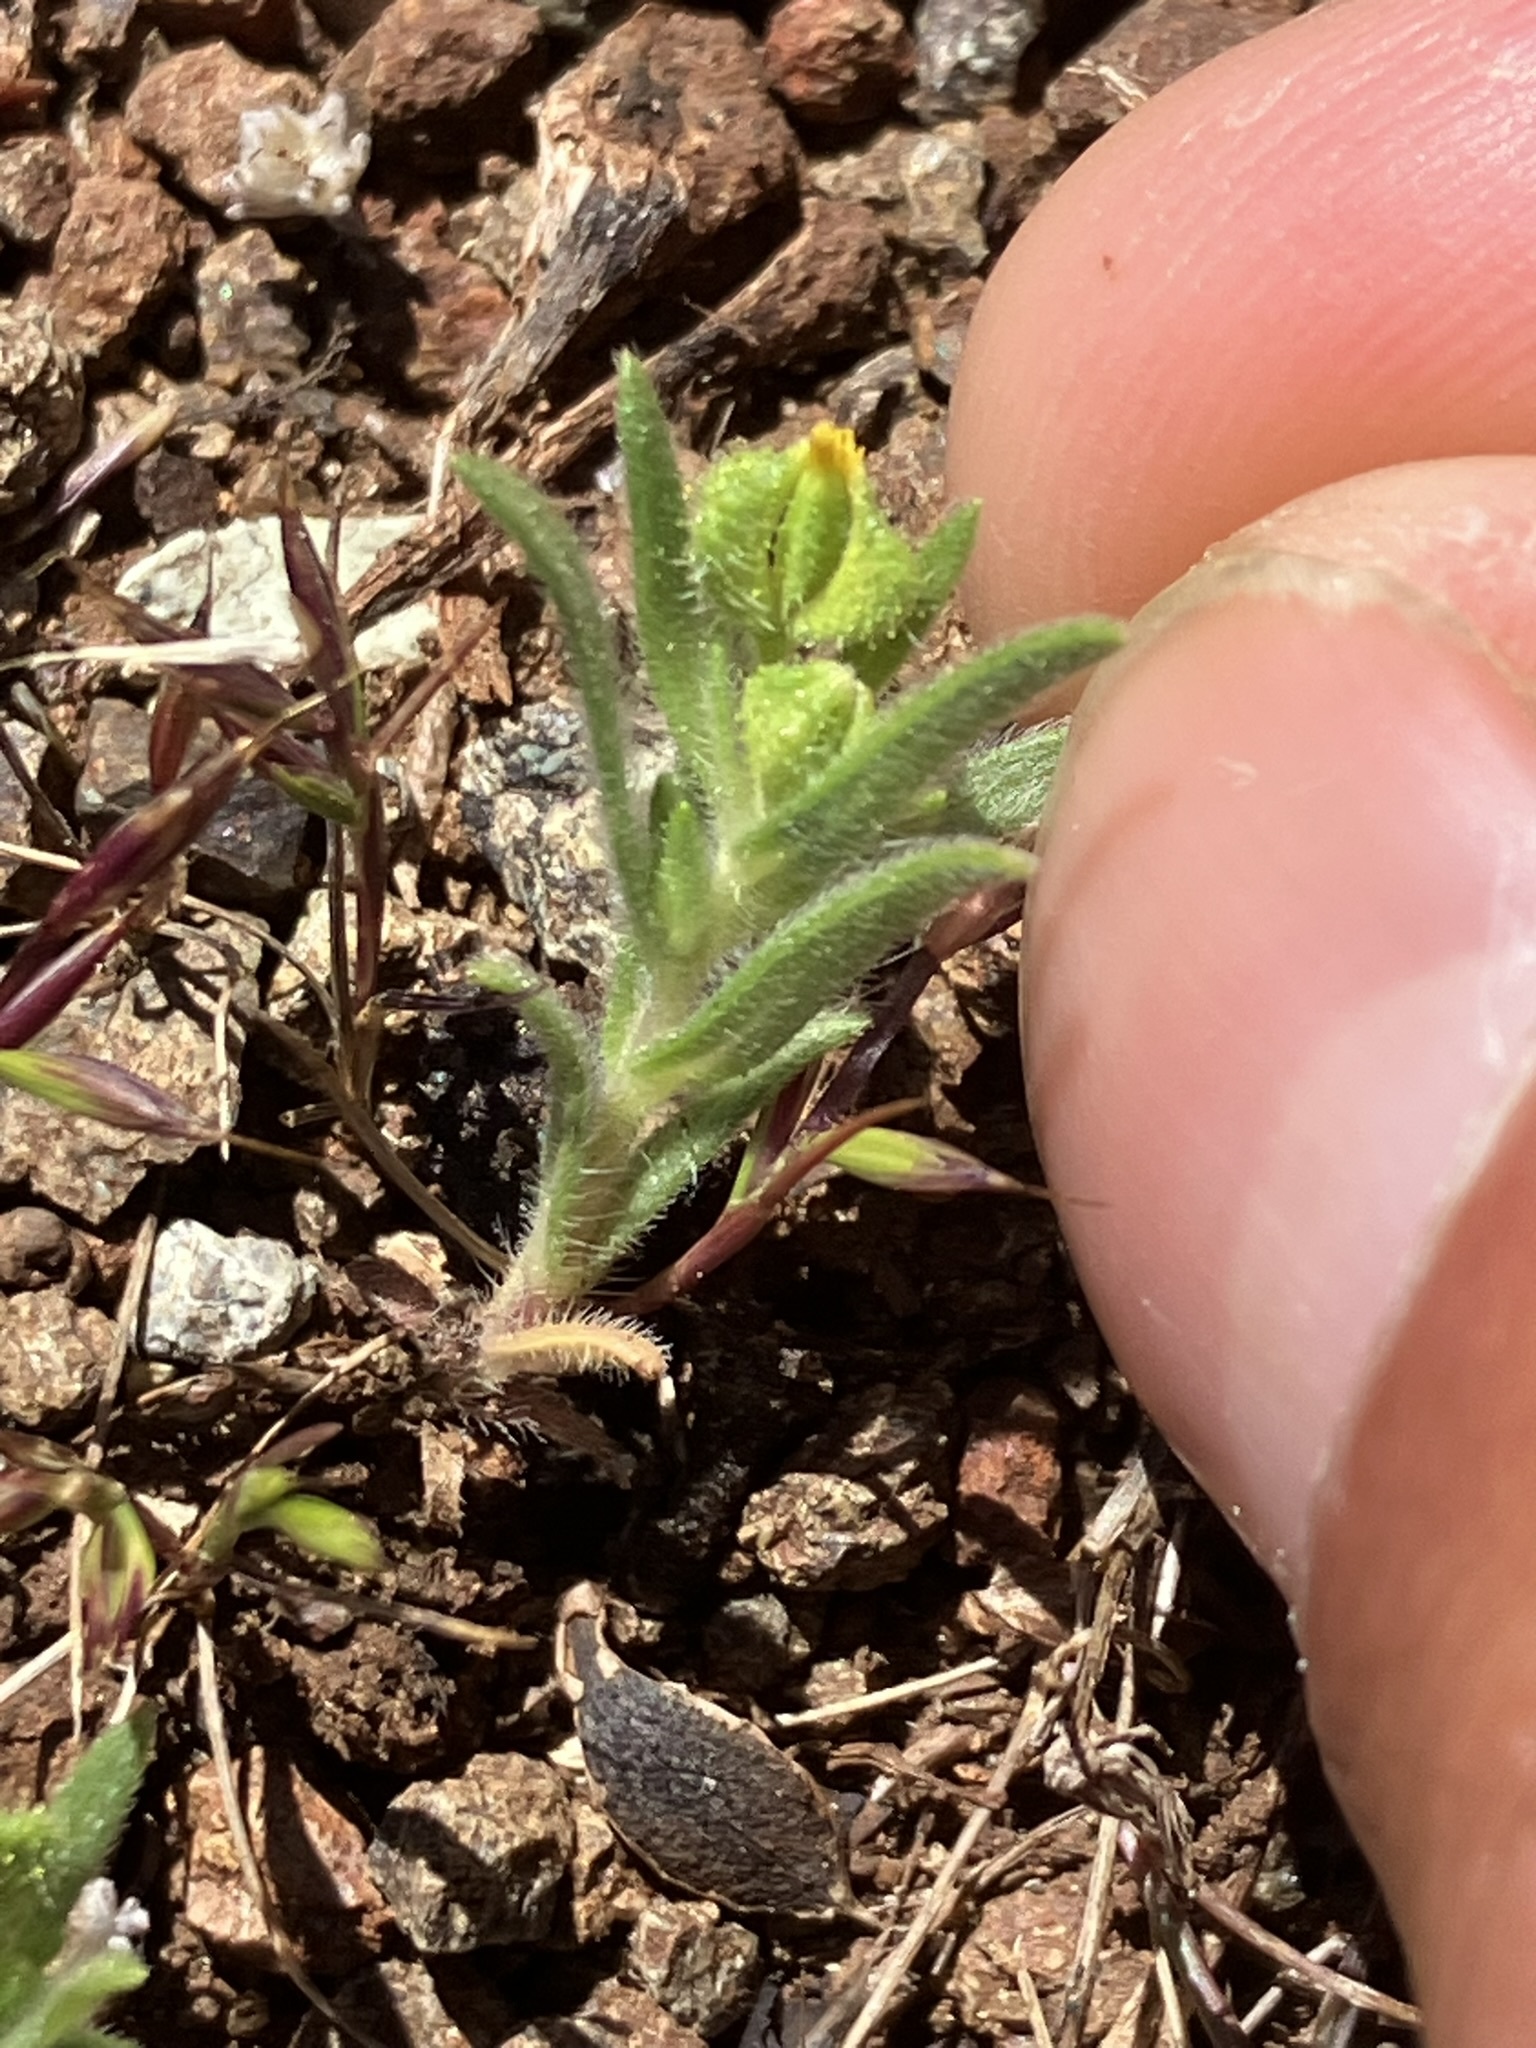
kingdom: Plantae
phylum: Tracheophyta
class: Magnoliopsida
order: Asterales
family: Asteraceae
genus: Madia
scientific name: Madia exigua
